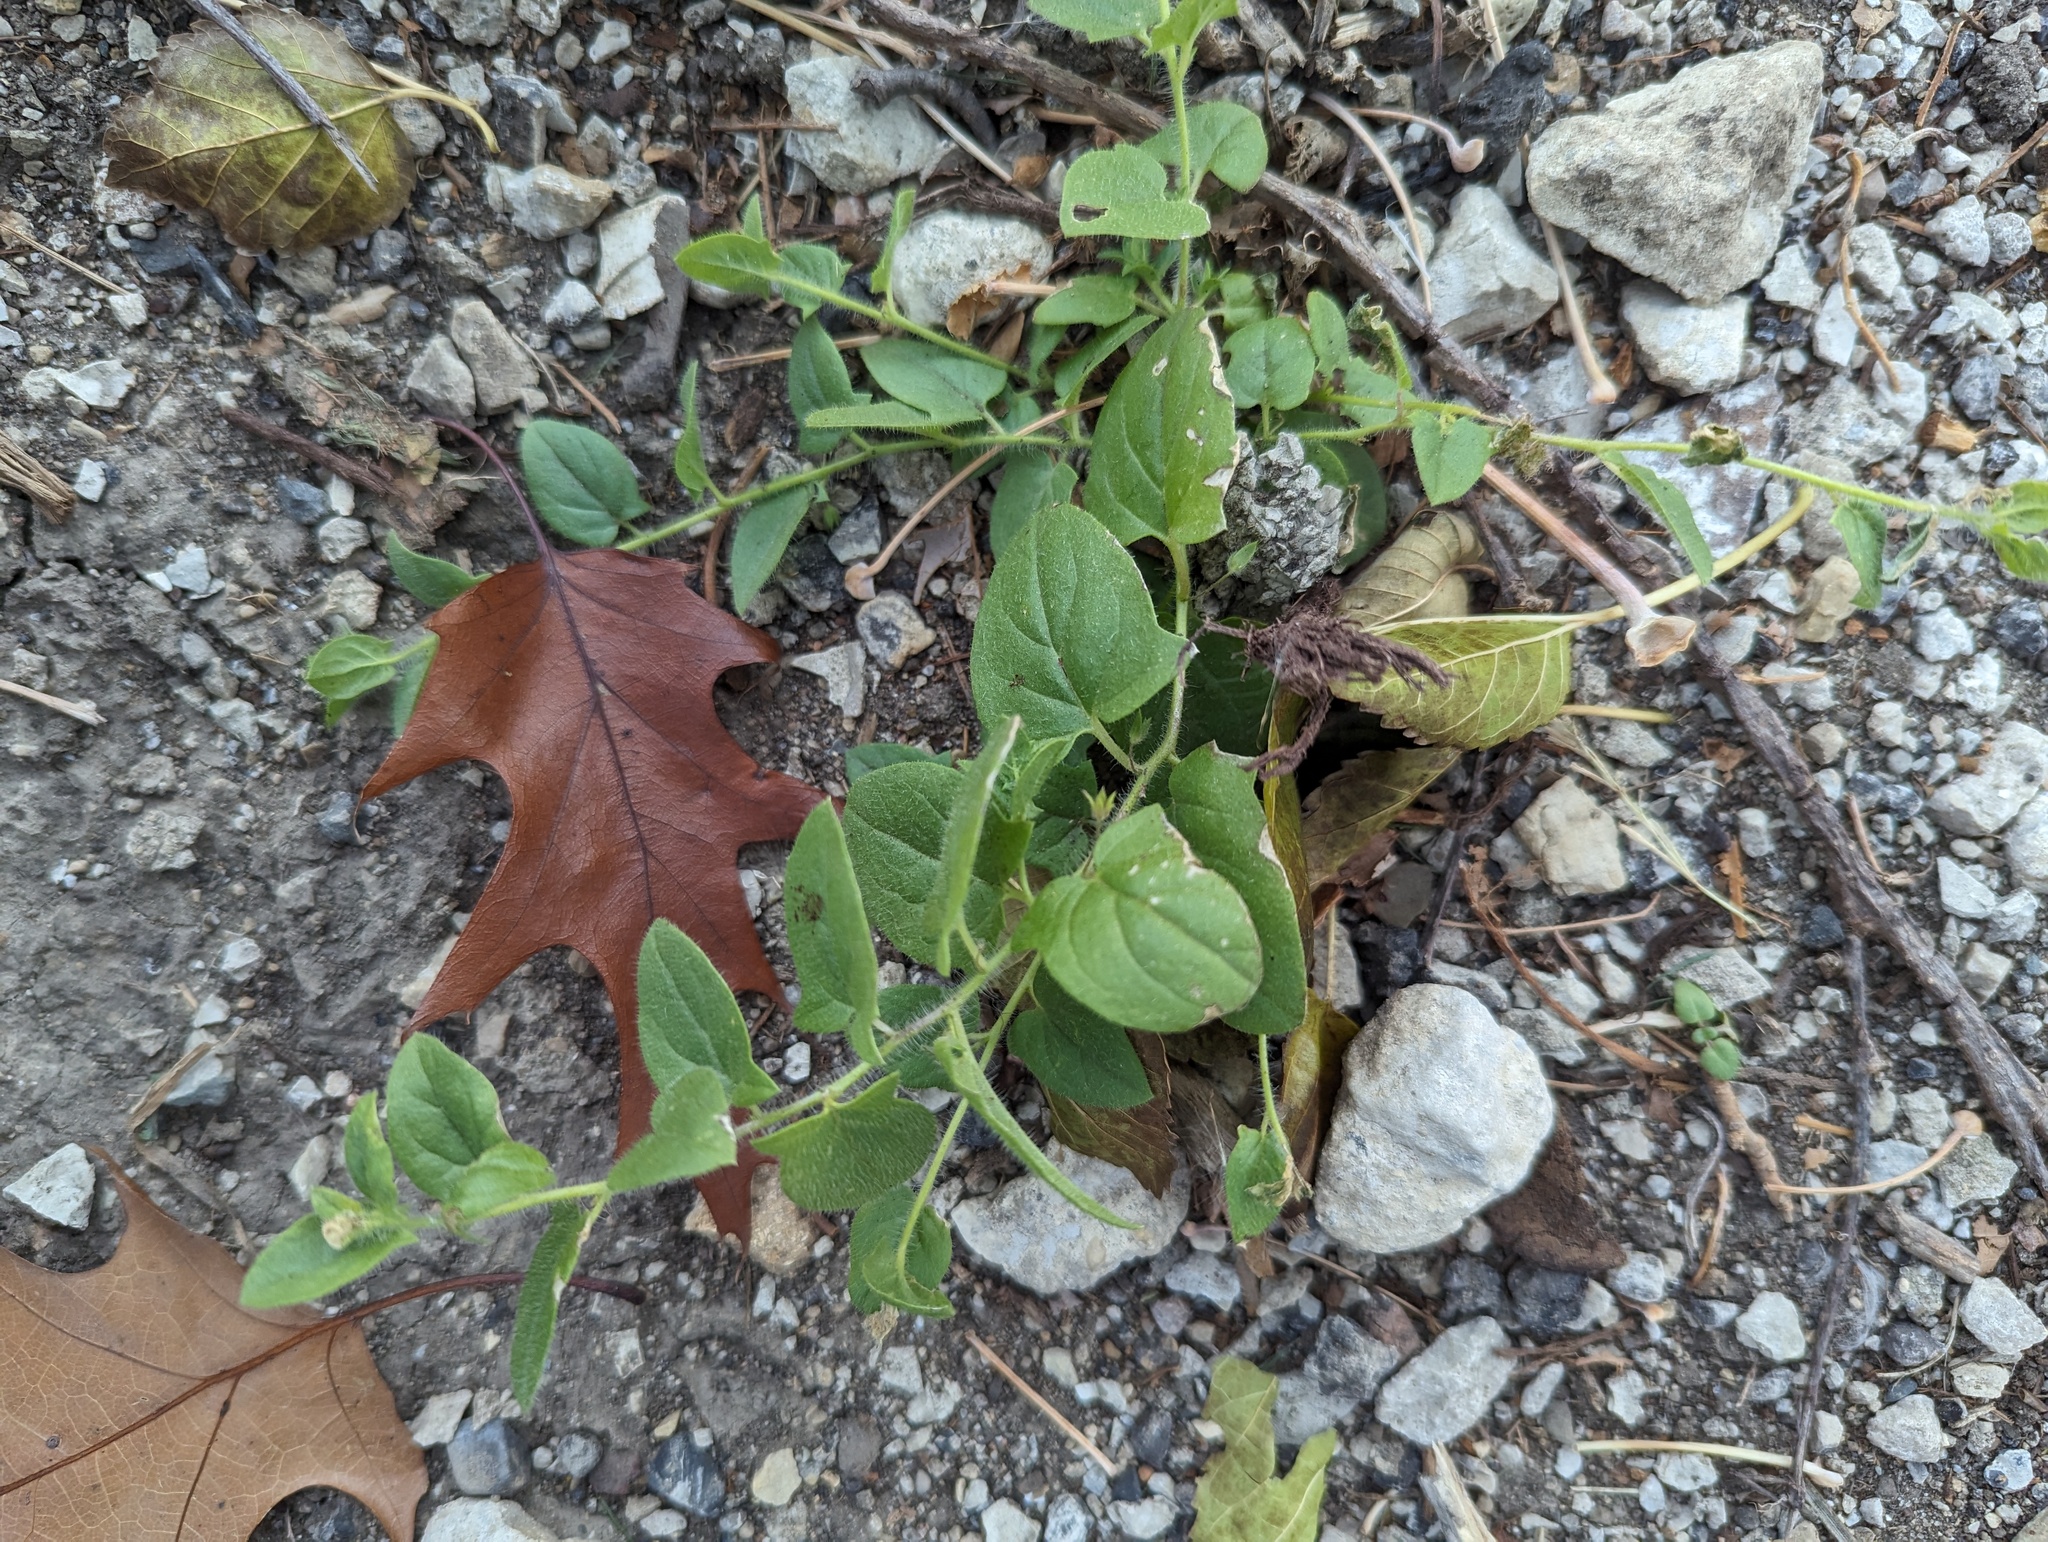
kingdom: Plantae
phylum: Tracheophyta
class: Magnoliopsida
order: Lamiales
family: Plantaginaceae
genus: Kickxia
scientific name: Kickxia elatine
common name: Sharp-leaved fluellen
